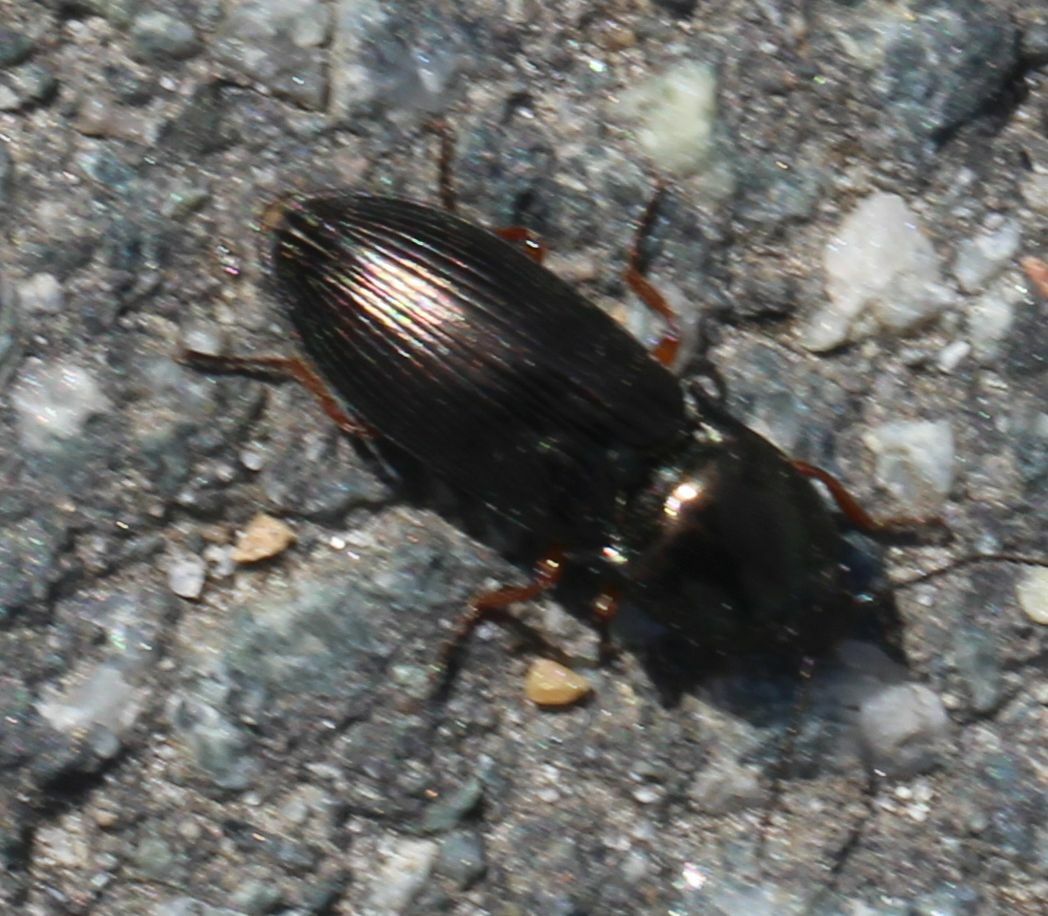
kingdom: Animalia
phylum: Arthropoda
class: Insecta
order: Coleoptera
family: Elateridae
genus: Selatosomus
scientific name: Selatosomus aeneus
